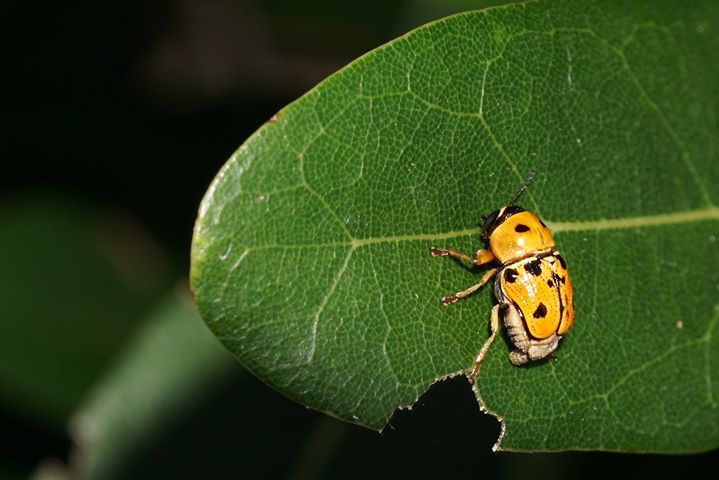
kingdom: Animalia
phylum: Arthropoda
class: Insecta
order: Coleoptera
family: Chrysomelidae
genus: Griburius
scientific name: Griburius larvatus
